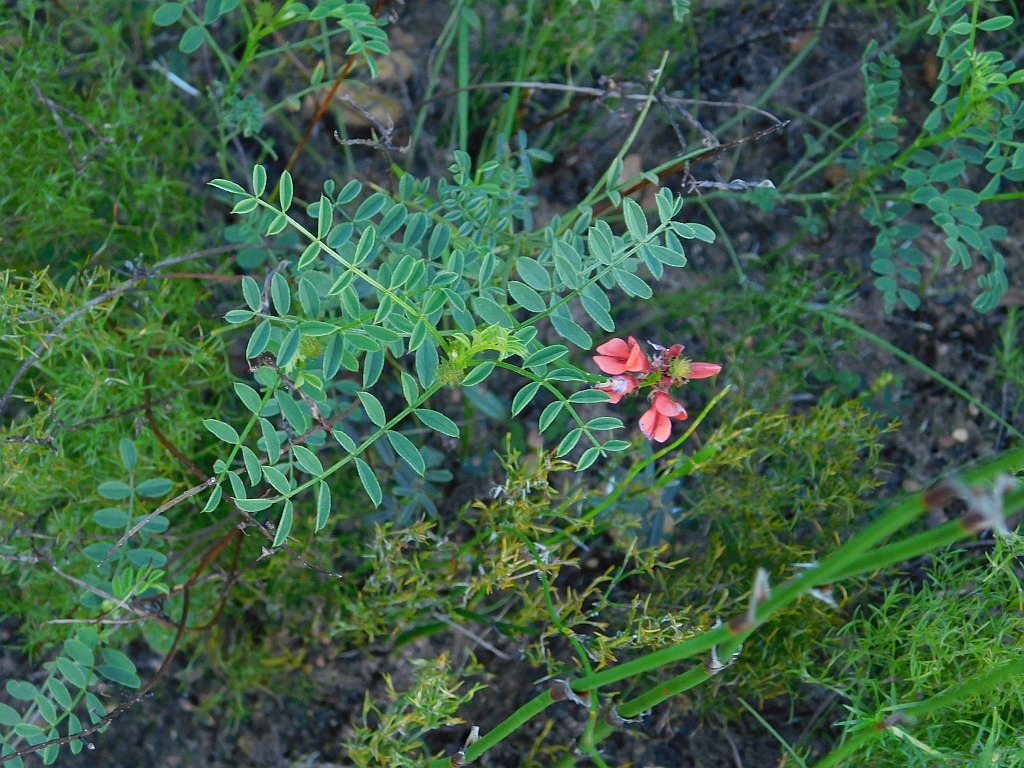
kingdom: Plantae
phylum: Tracheophyta
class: Magnoliopsida
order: Fabales
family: Fabaceae
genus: Indigofera
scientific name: Indigofera capillaris
